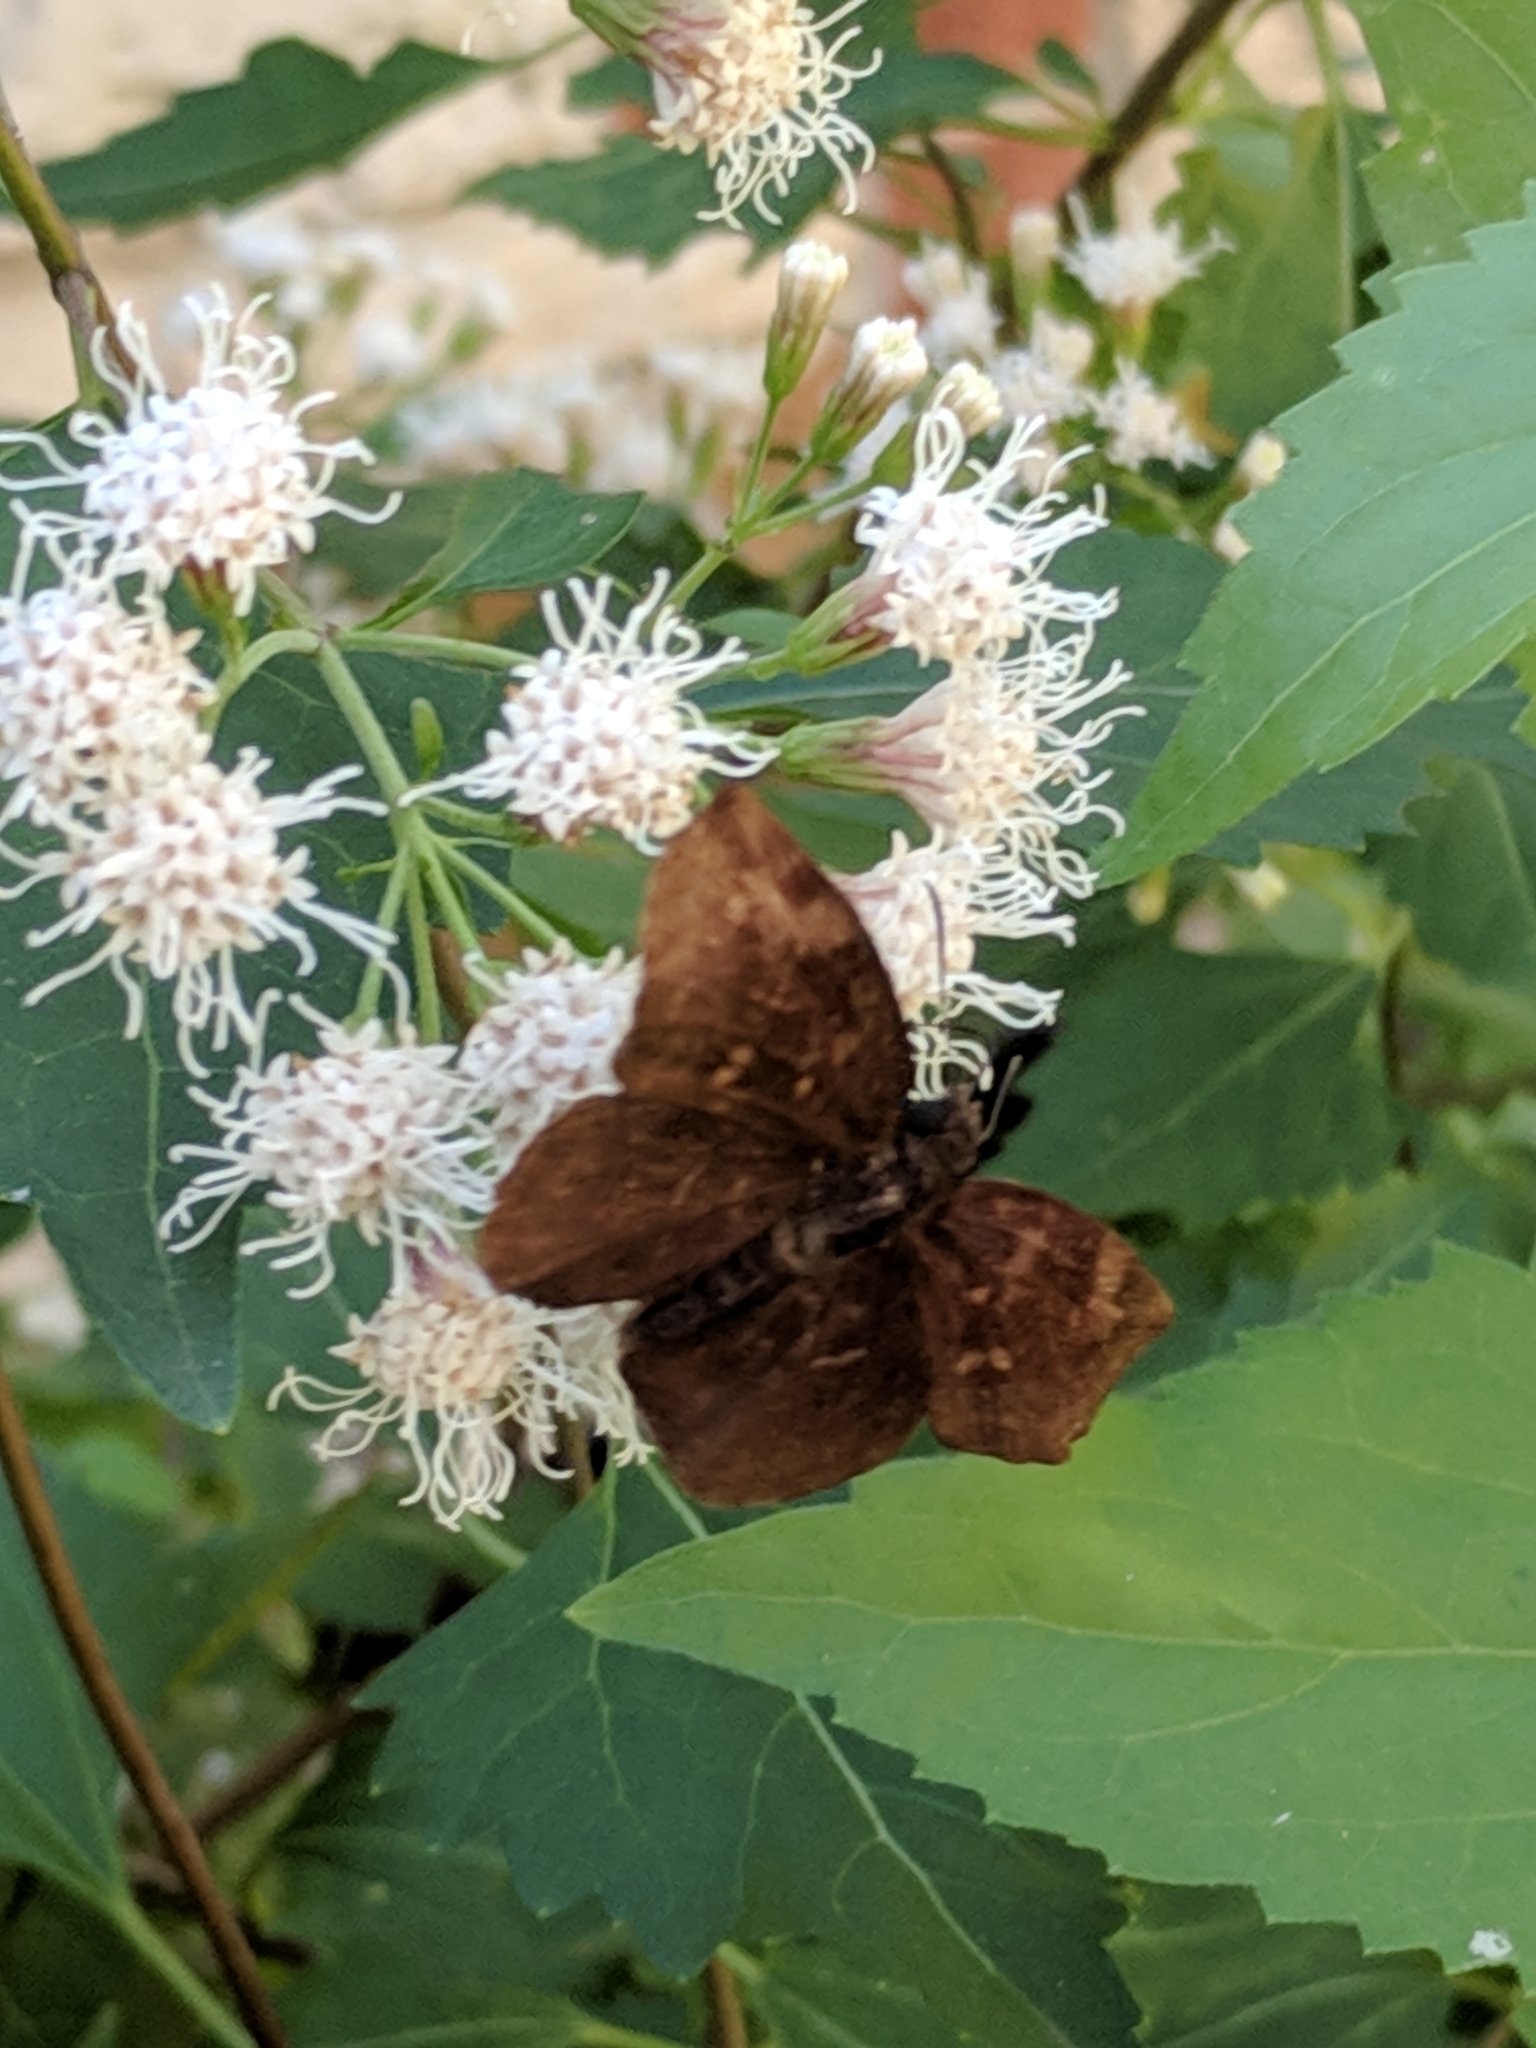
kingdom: Animalia
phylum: Arthropoda
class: Insecta
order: Lepidoptera
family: Hesperiidae
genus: Achlyodes
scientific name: Achlyodes thraso
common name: Sickle-winged skipper
